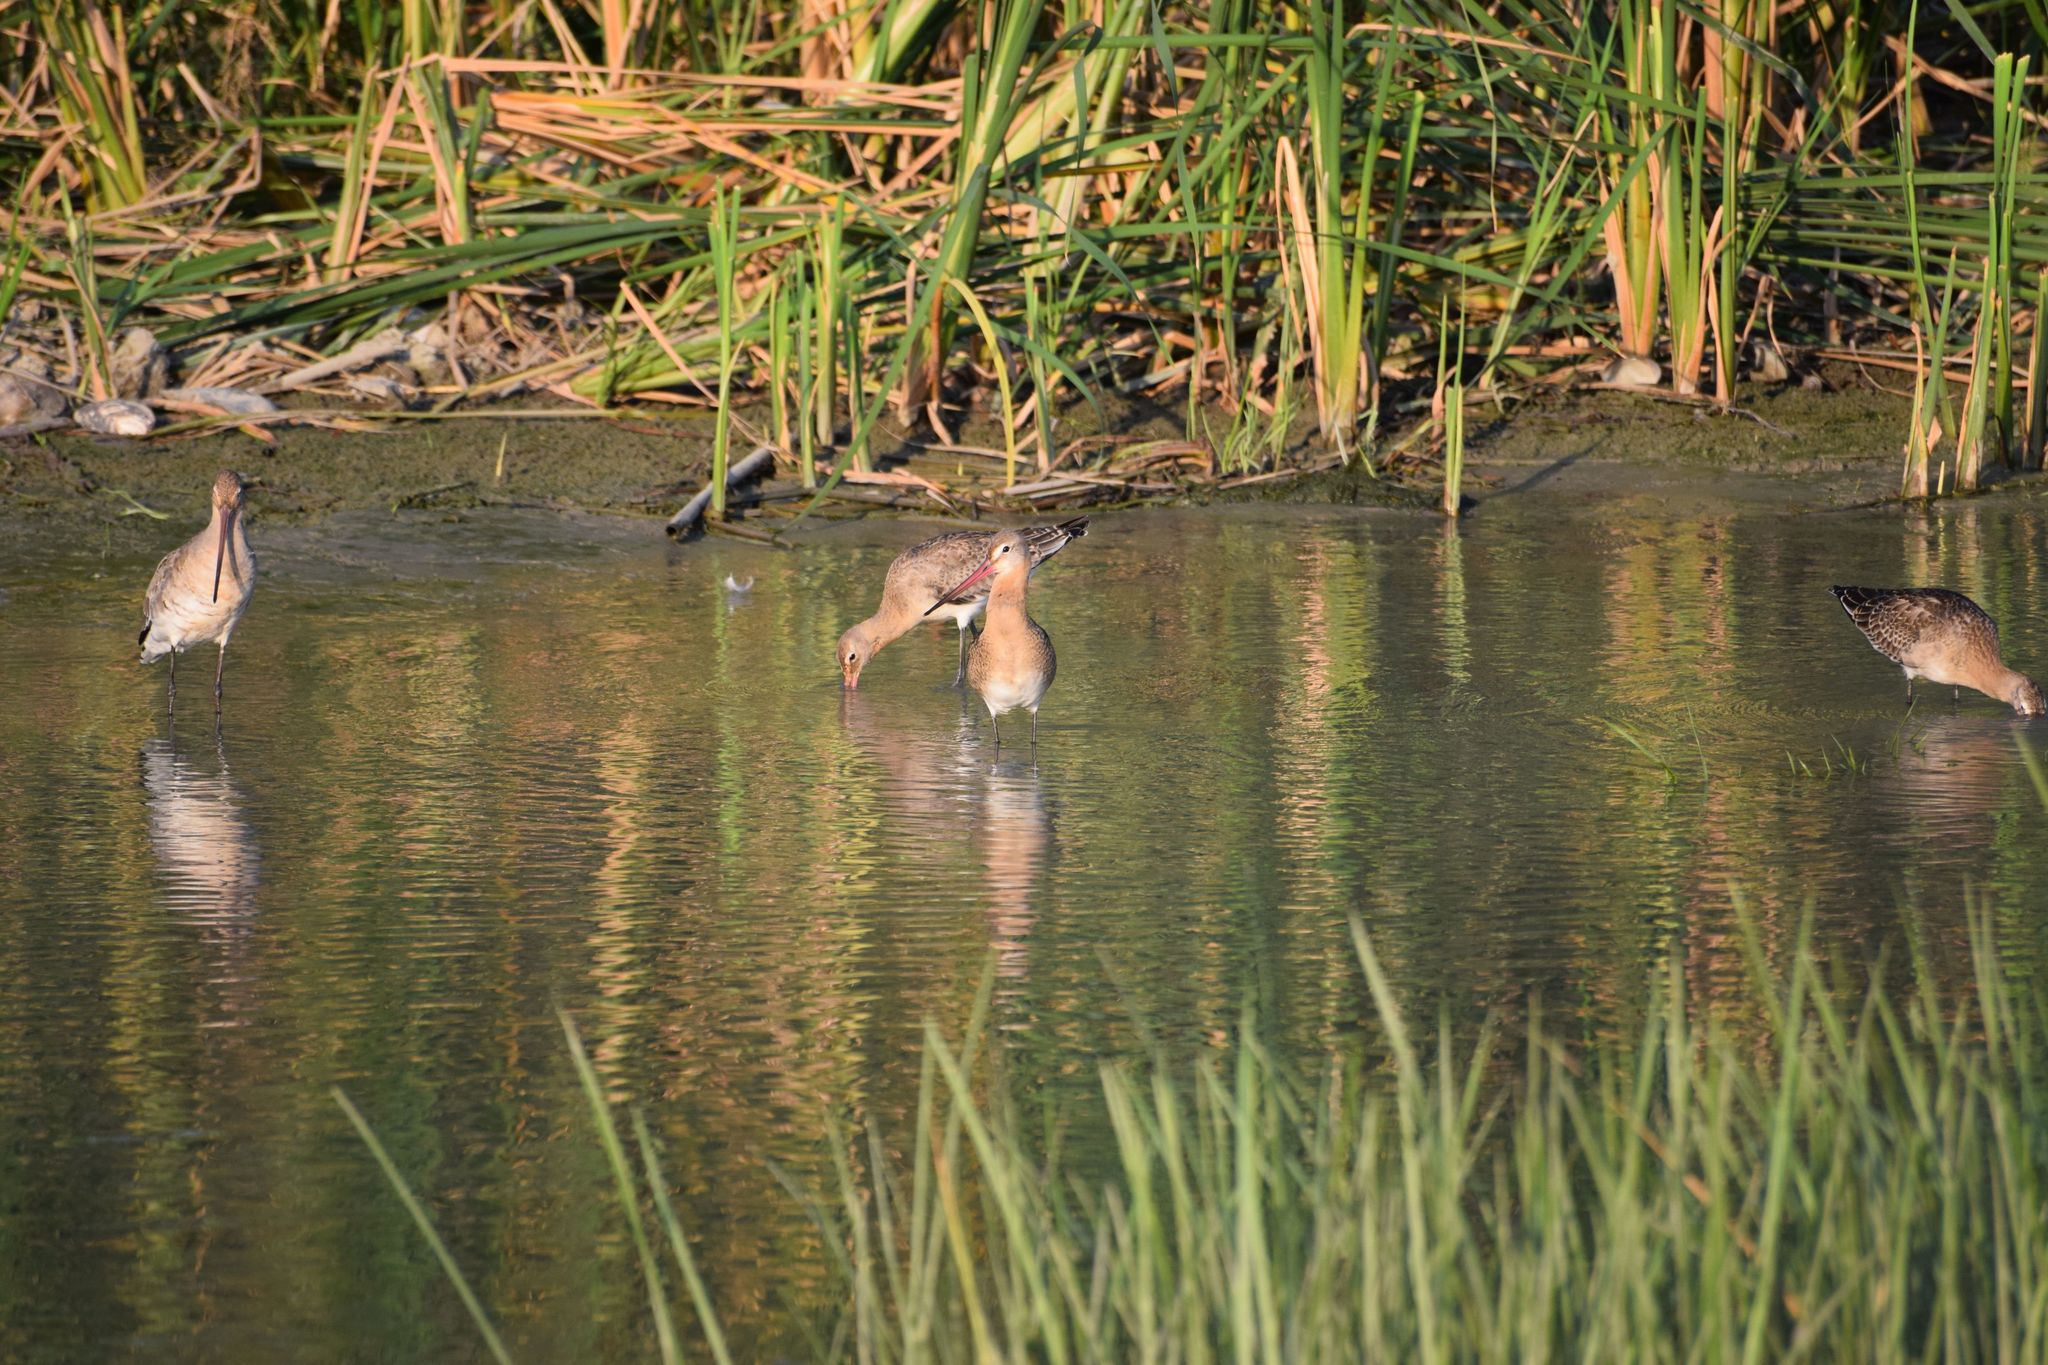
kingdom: Animalia
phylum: Chordata
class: Aves
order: Charadriiformes
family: Scolopacidae
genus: Limosa
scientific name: Limosa limosa
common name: Black-tailed godwit
